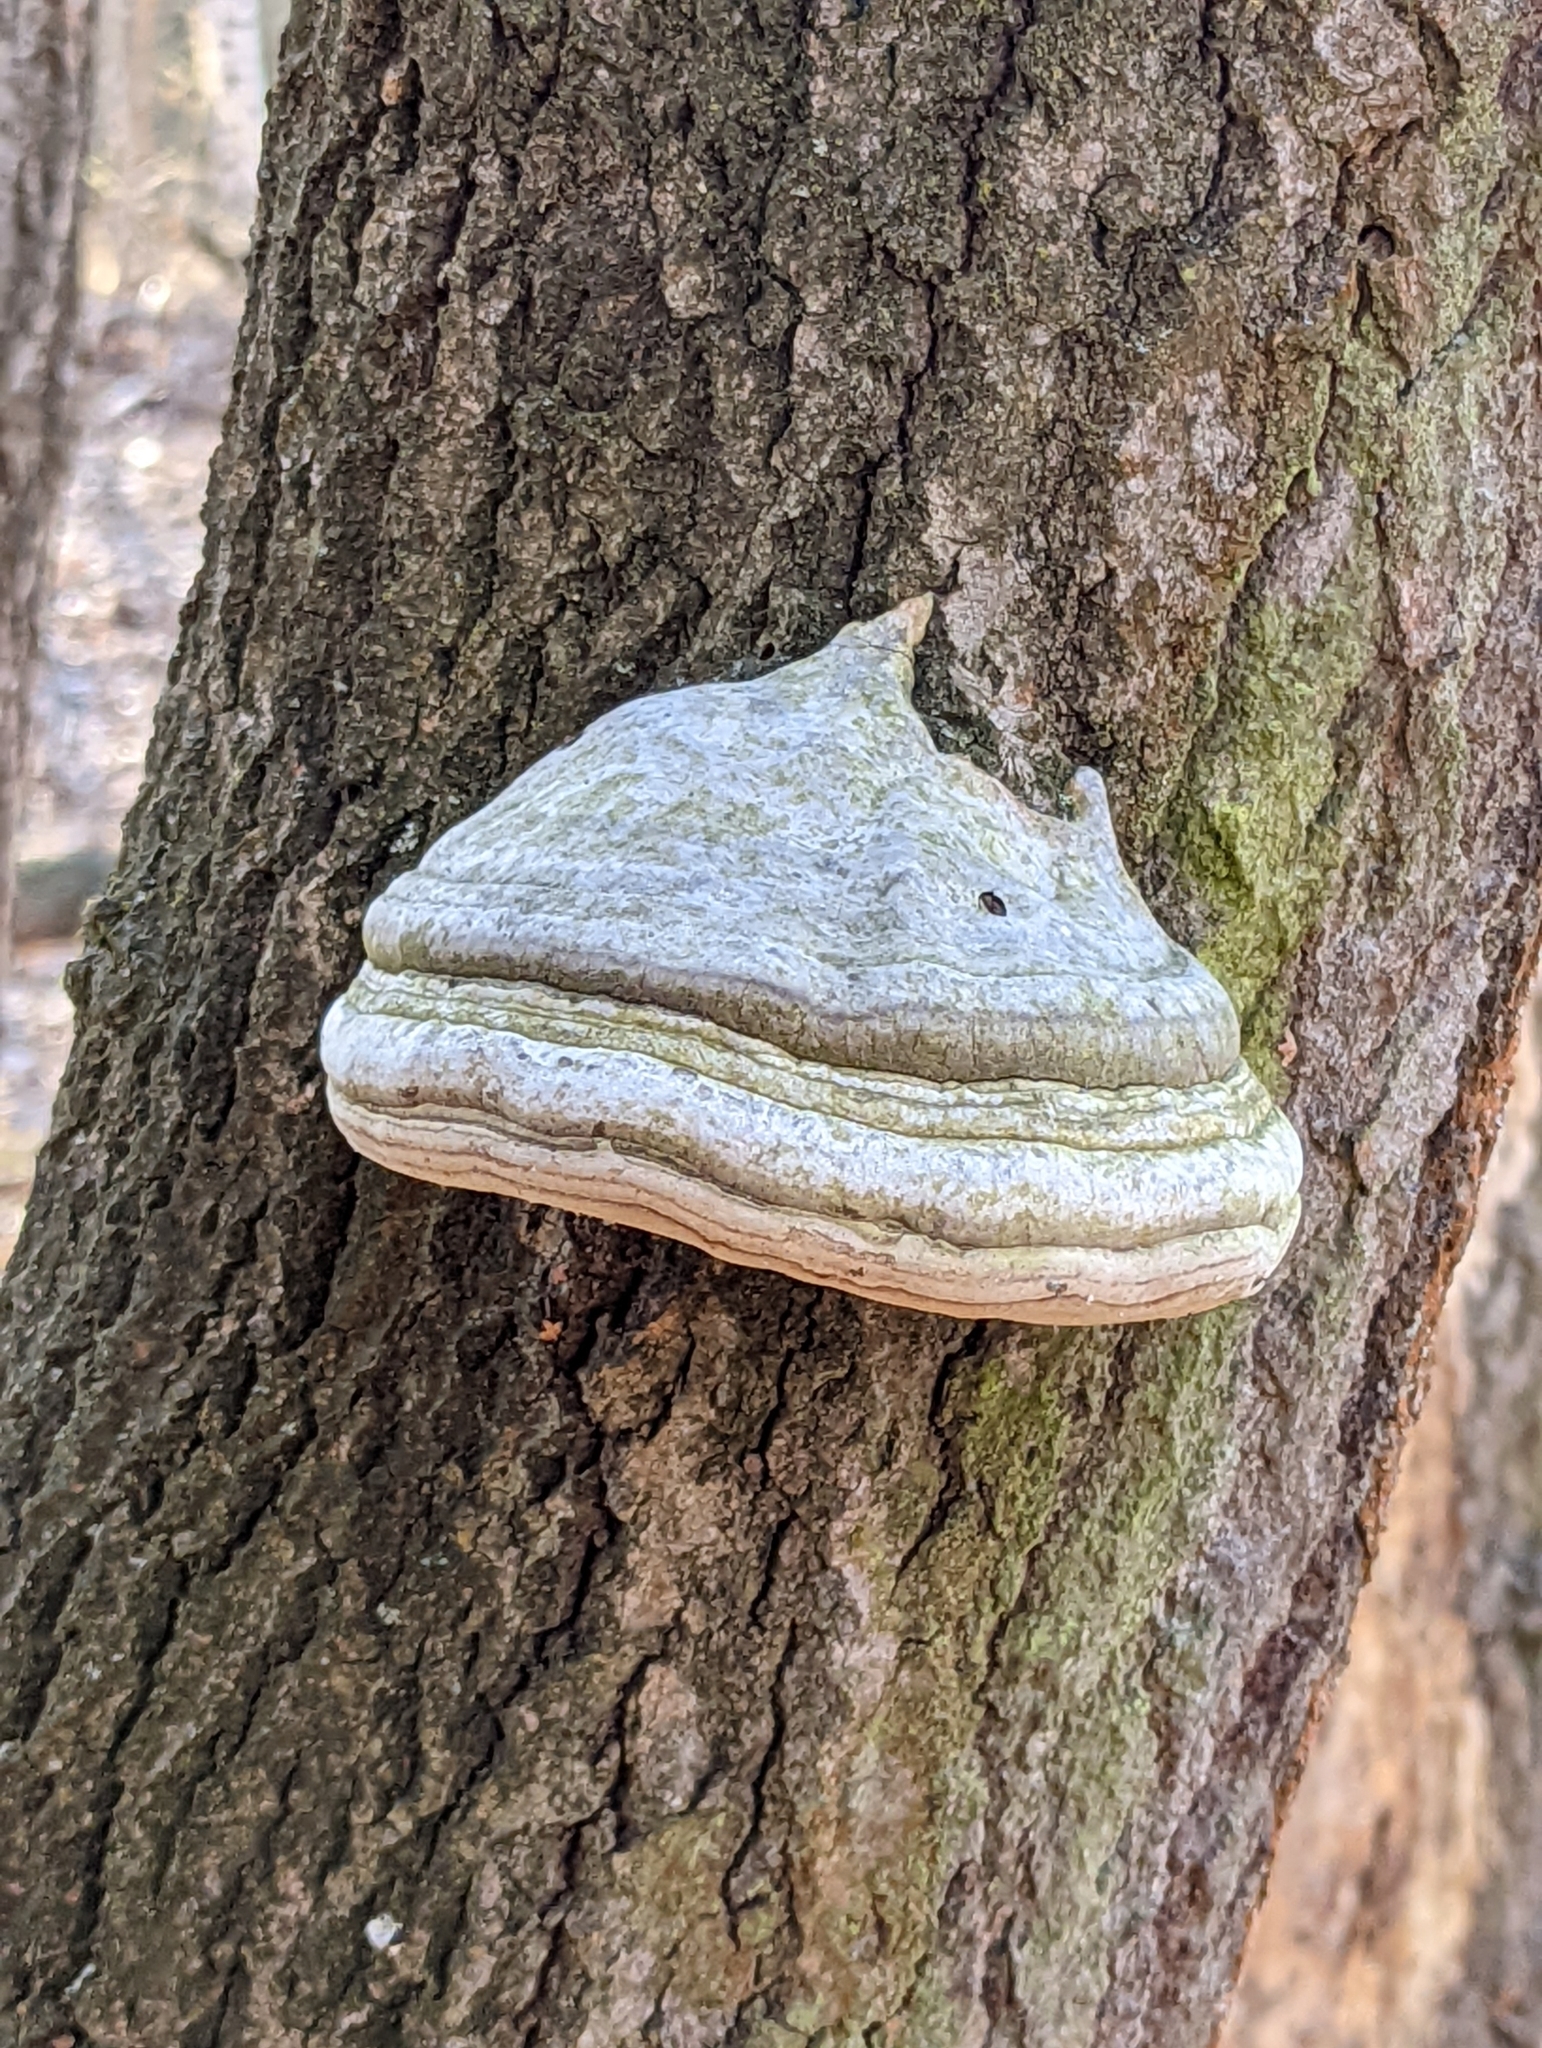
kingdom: Fungi
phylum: Basidiomycota
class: Agaricomycetes
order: Polyporales
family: Polyporaceae
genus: Fomes
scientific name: Fomes fomentarius
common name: Hoof fungus
